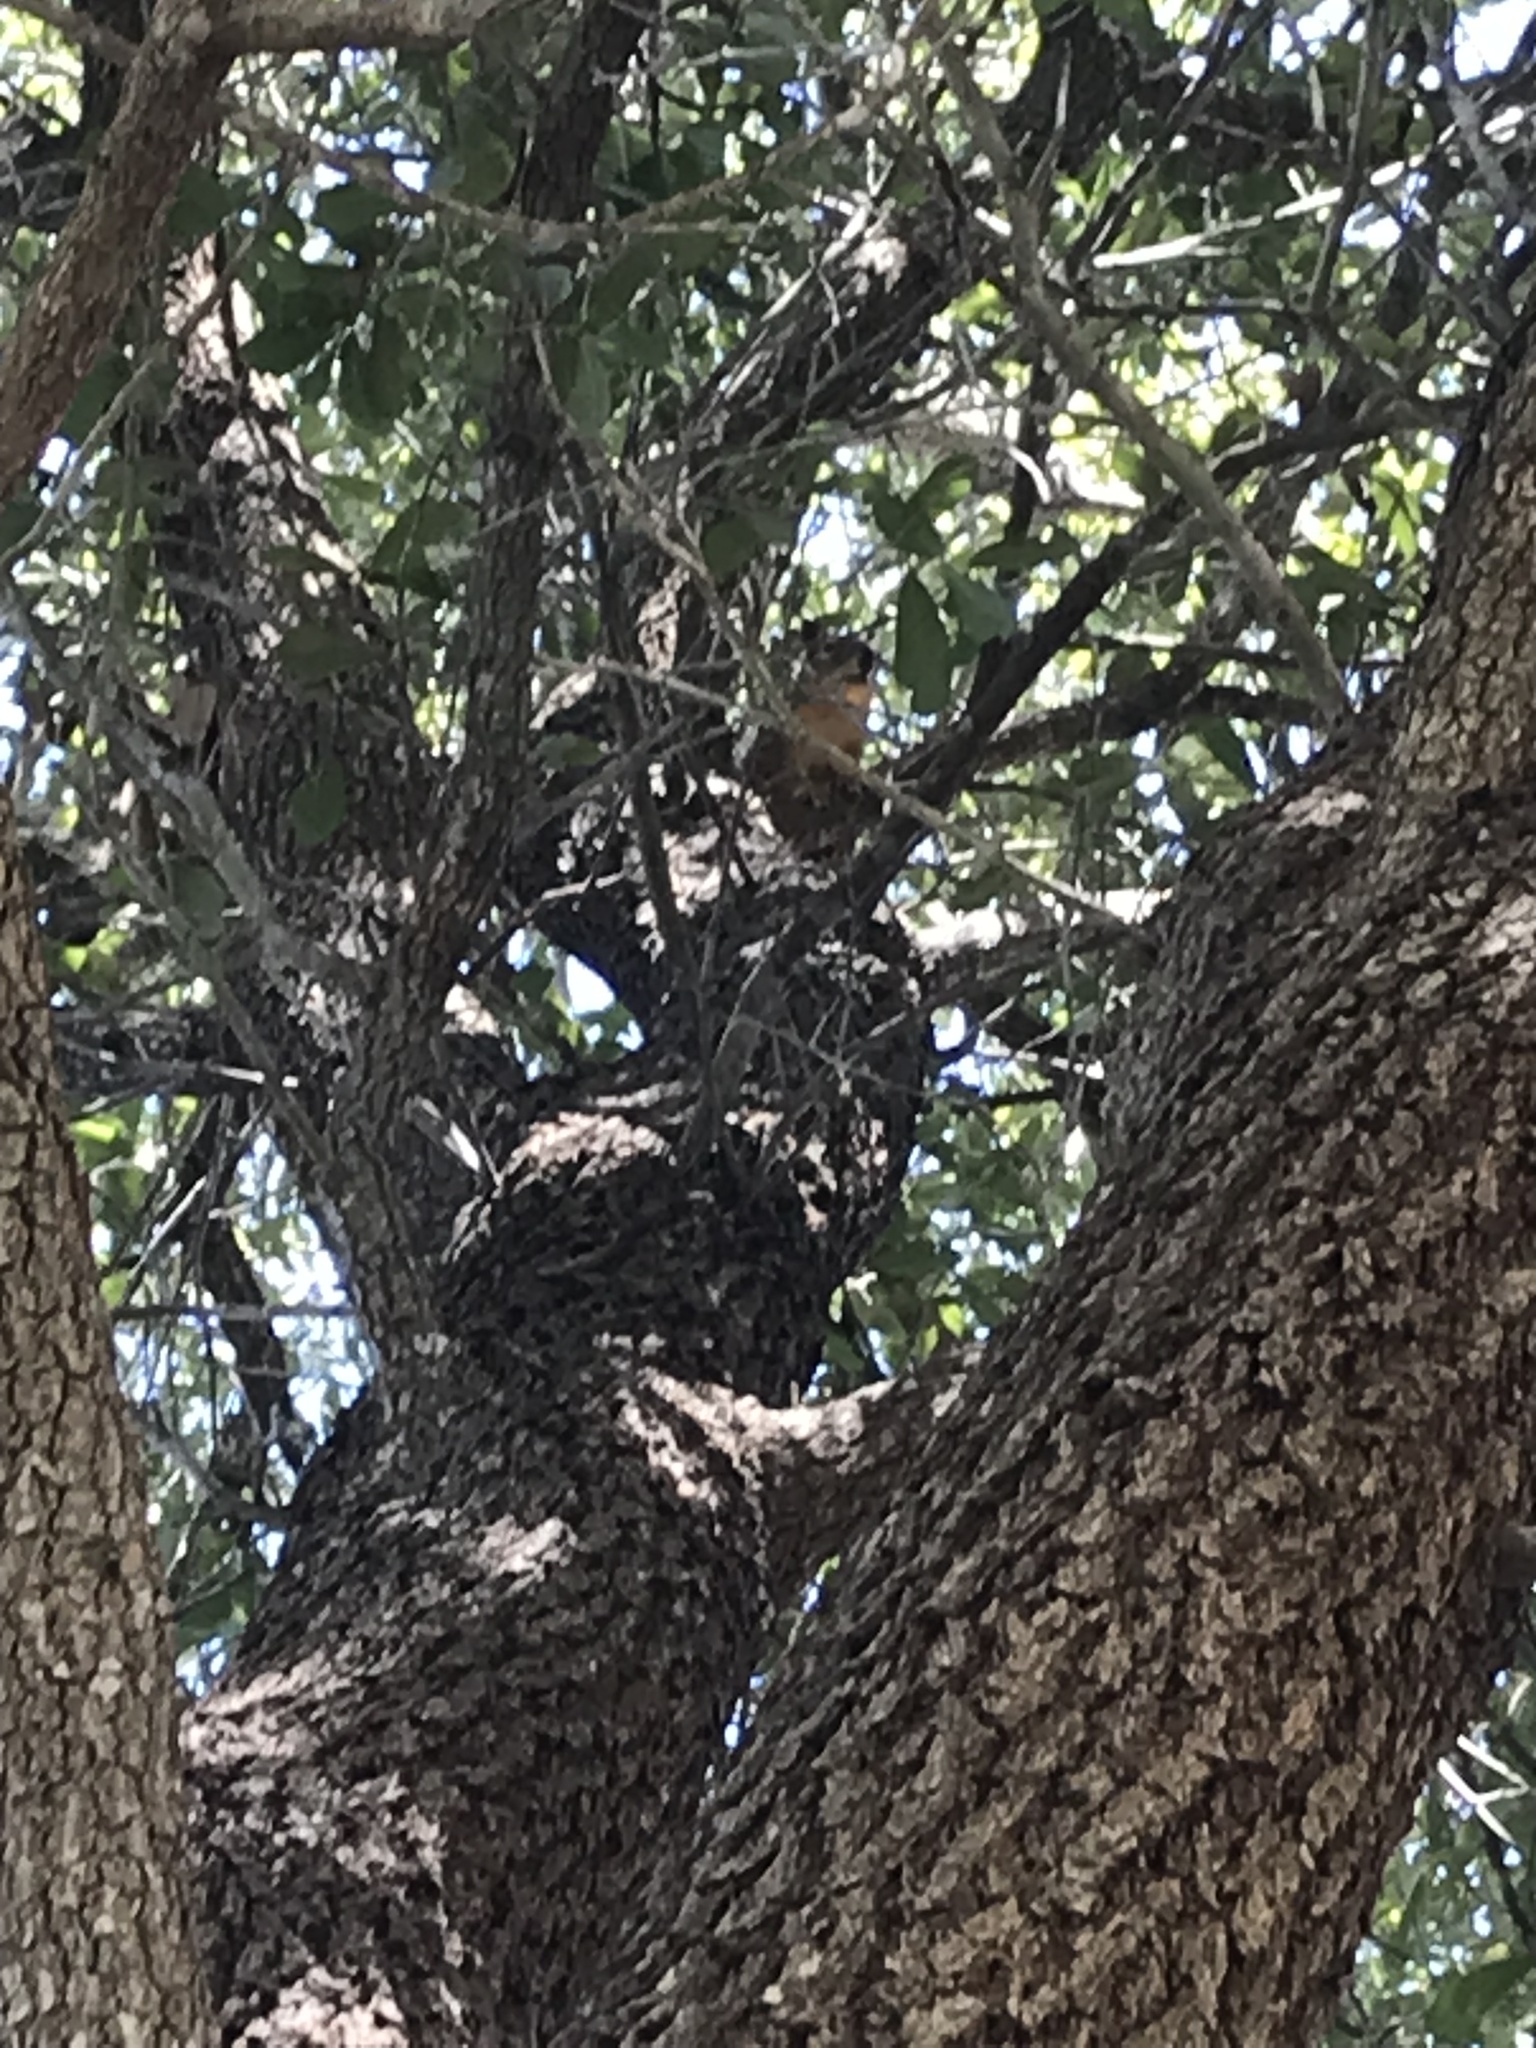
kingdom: Animalia
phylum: Chordata
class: Mammalia
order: Rodentia
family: Sciuridae
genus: Sciurus
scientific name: Sciurus niger
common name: Fox squirrel
